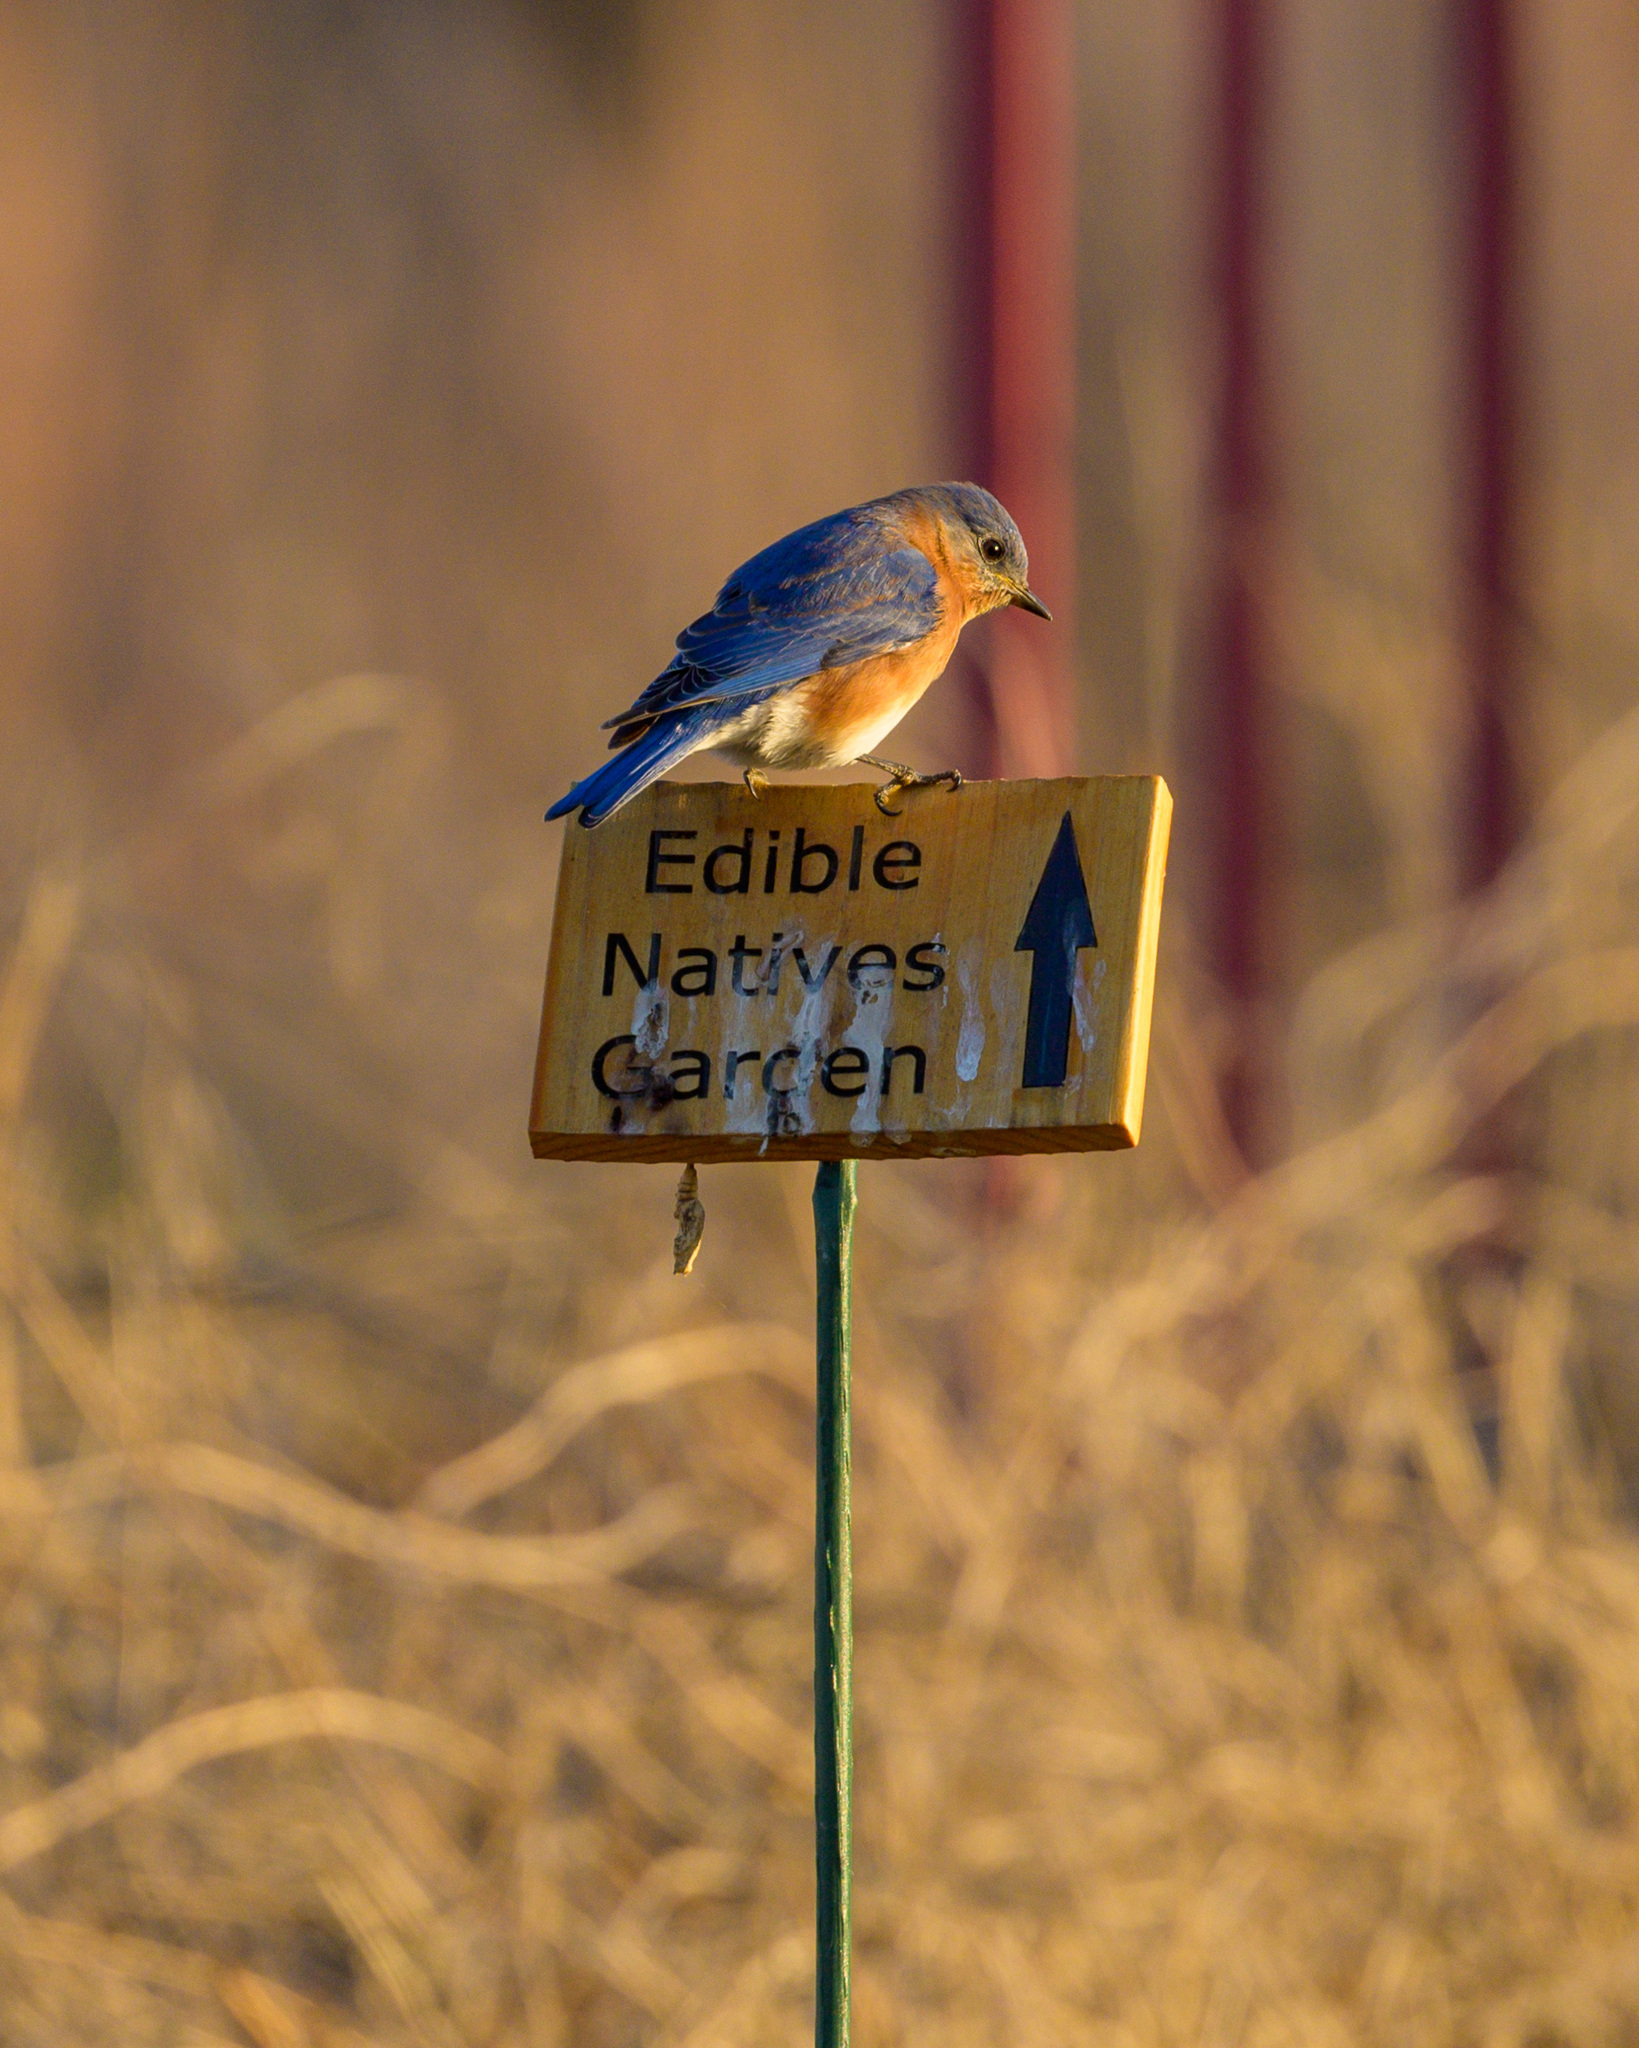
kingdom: Animalia
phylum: Chordata
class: Aves
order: Passeriformes
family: Turdidae
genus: Sialia
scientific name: Sialia sialis
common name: Eastern bluebird
